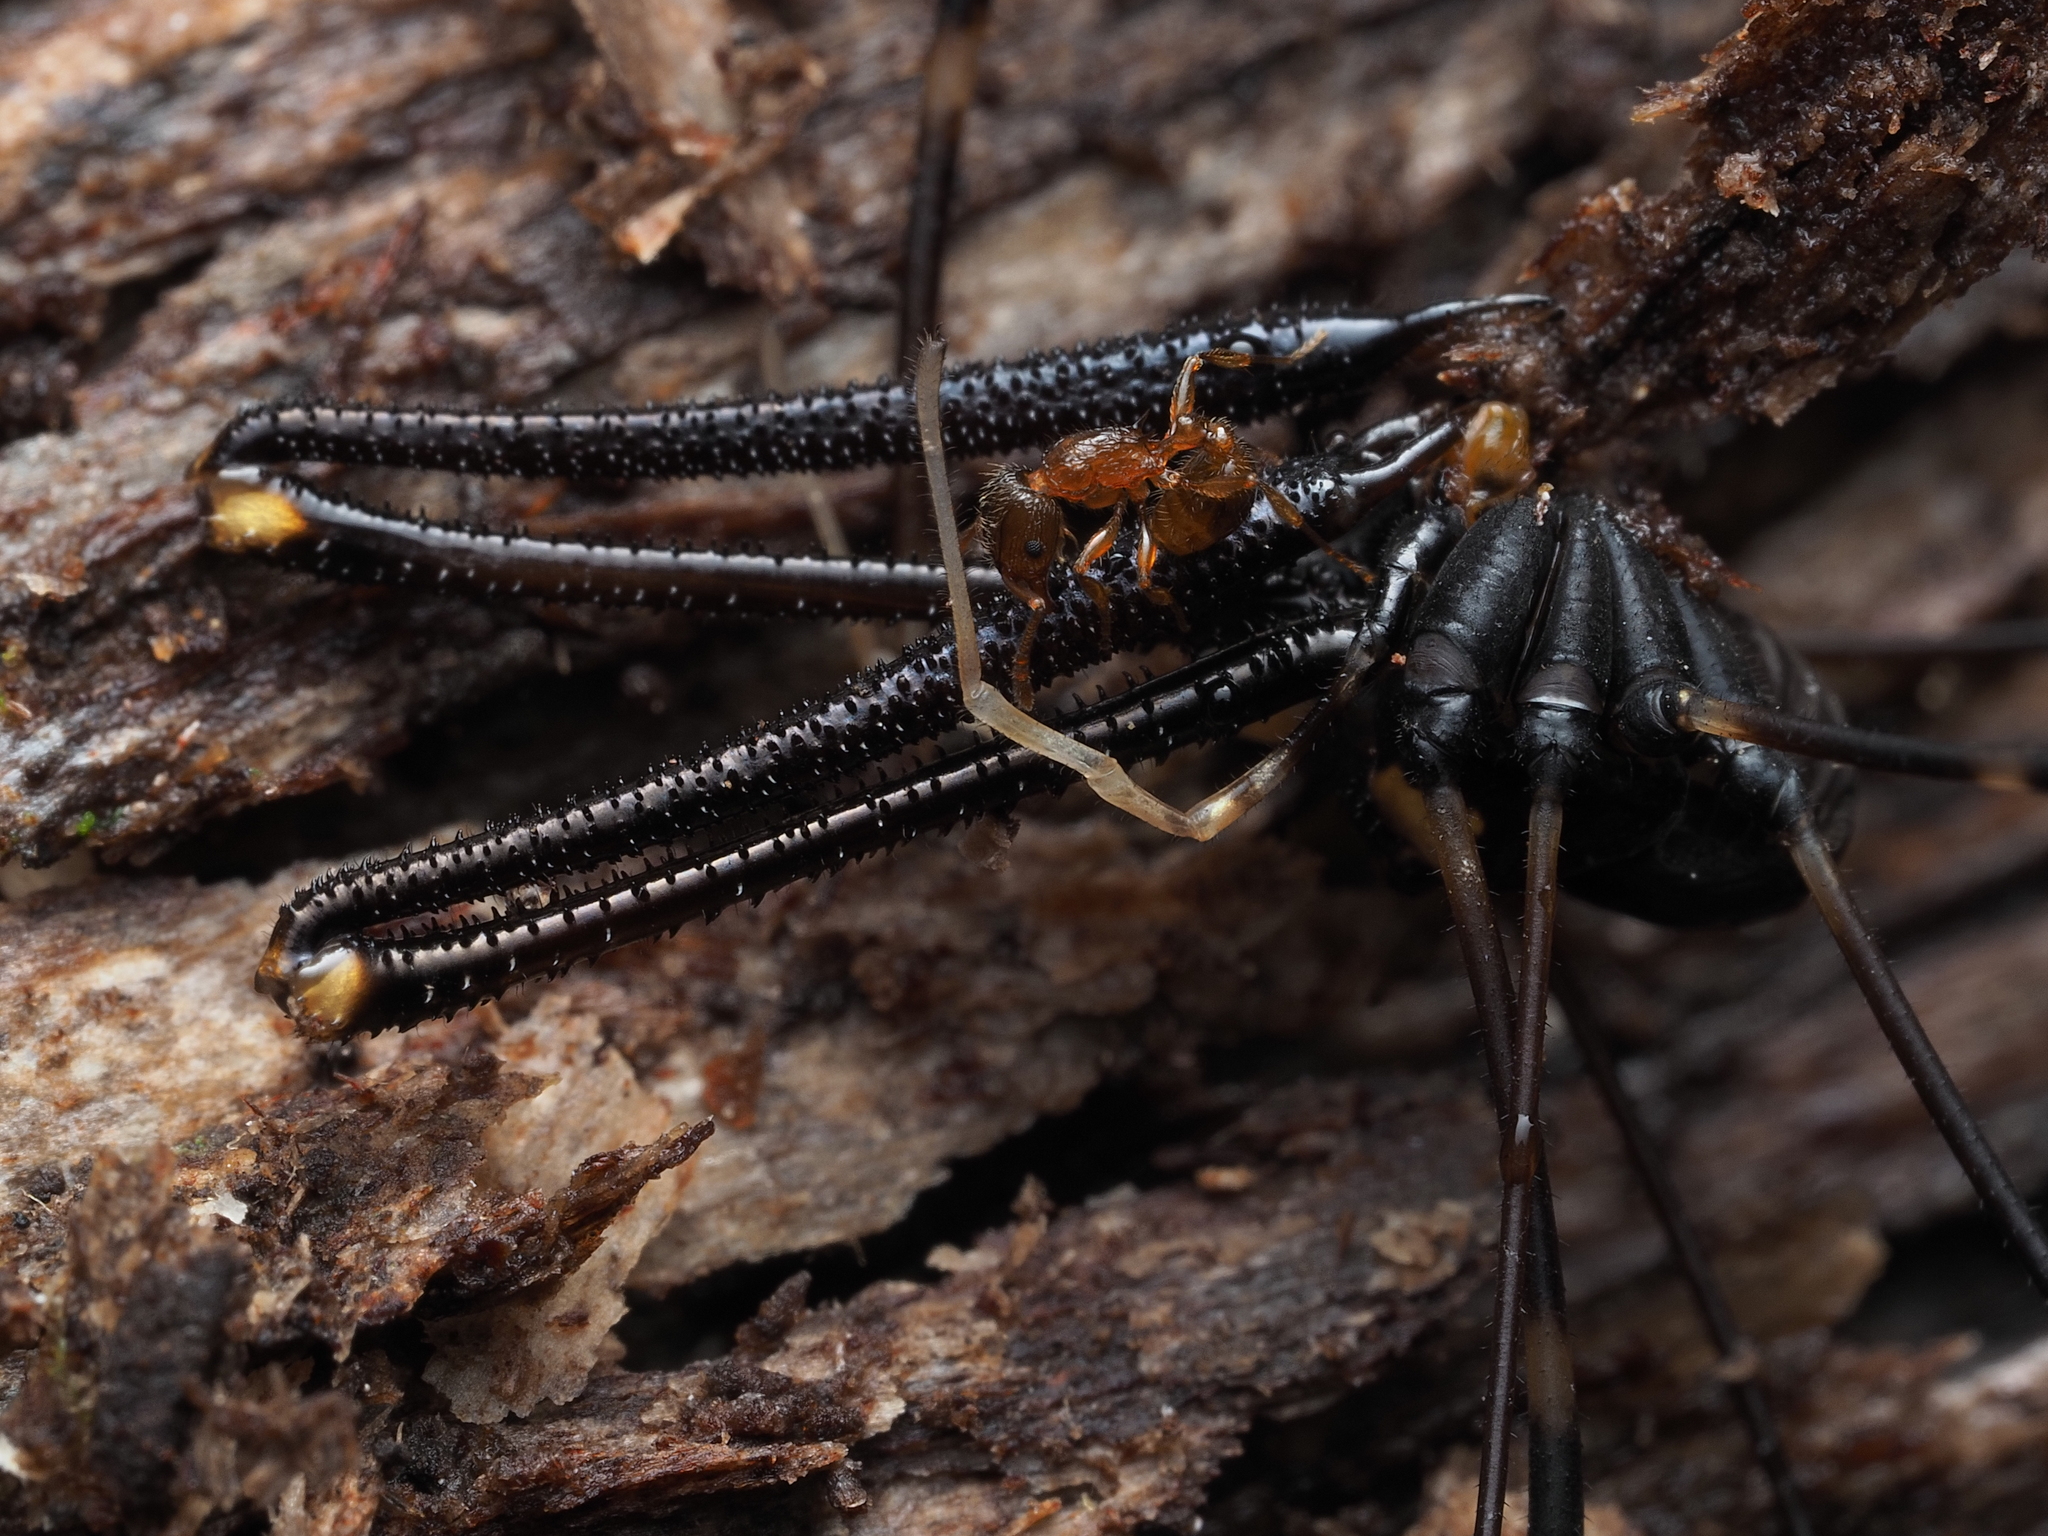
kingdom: Animalia
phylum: Arthropoda
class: Arachnida
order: Opiliones
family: Neopilionidae
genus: Forsteropsalis
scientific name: Forsteropsalis pureora
